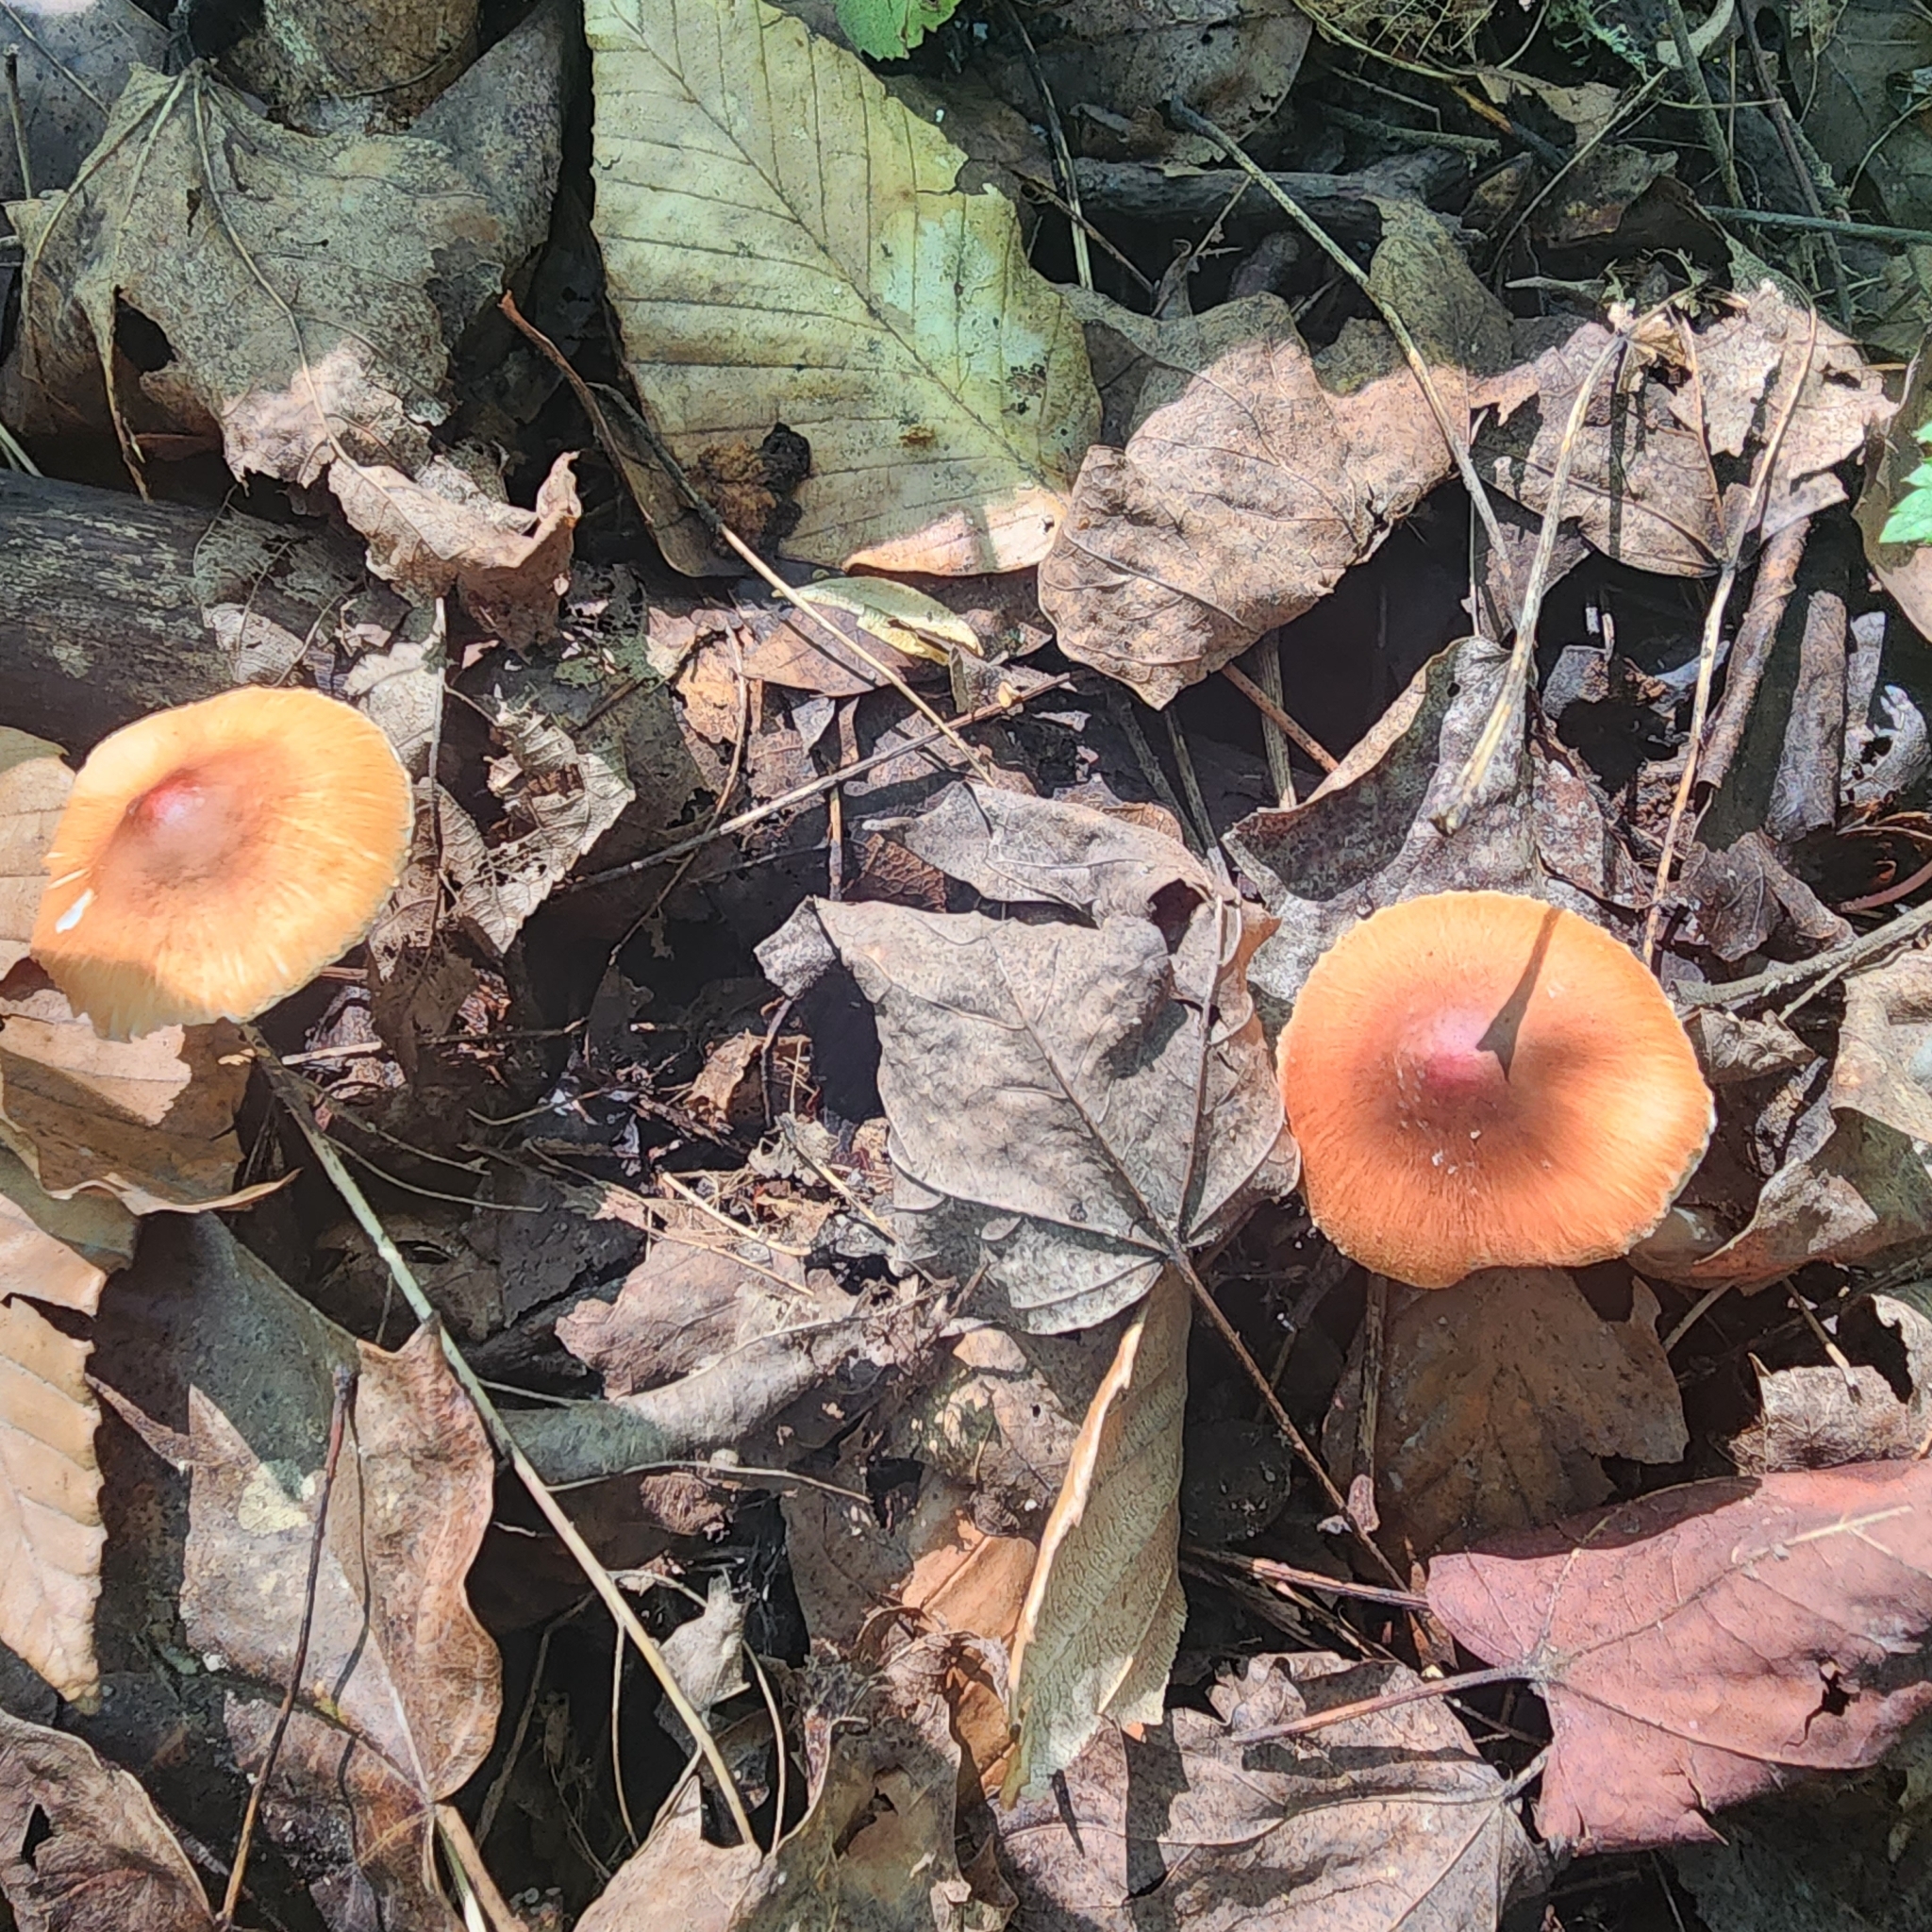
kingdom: Fungi
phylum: Basidiomycota
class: Agaricomycetes
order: Agaricales
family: Agaricaceae
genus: Leucoagaricus
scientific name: Leucoagaricus rubrotinctus
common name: Ruby dapperling
